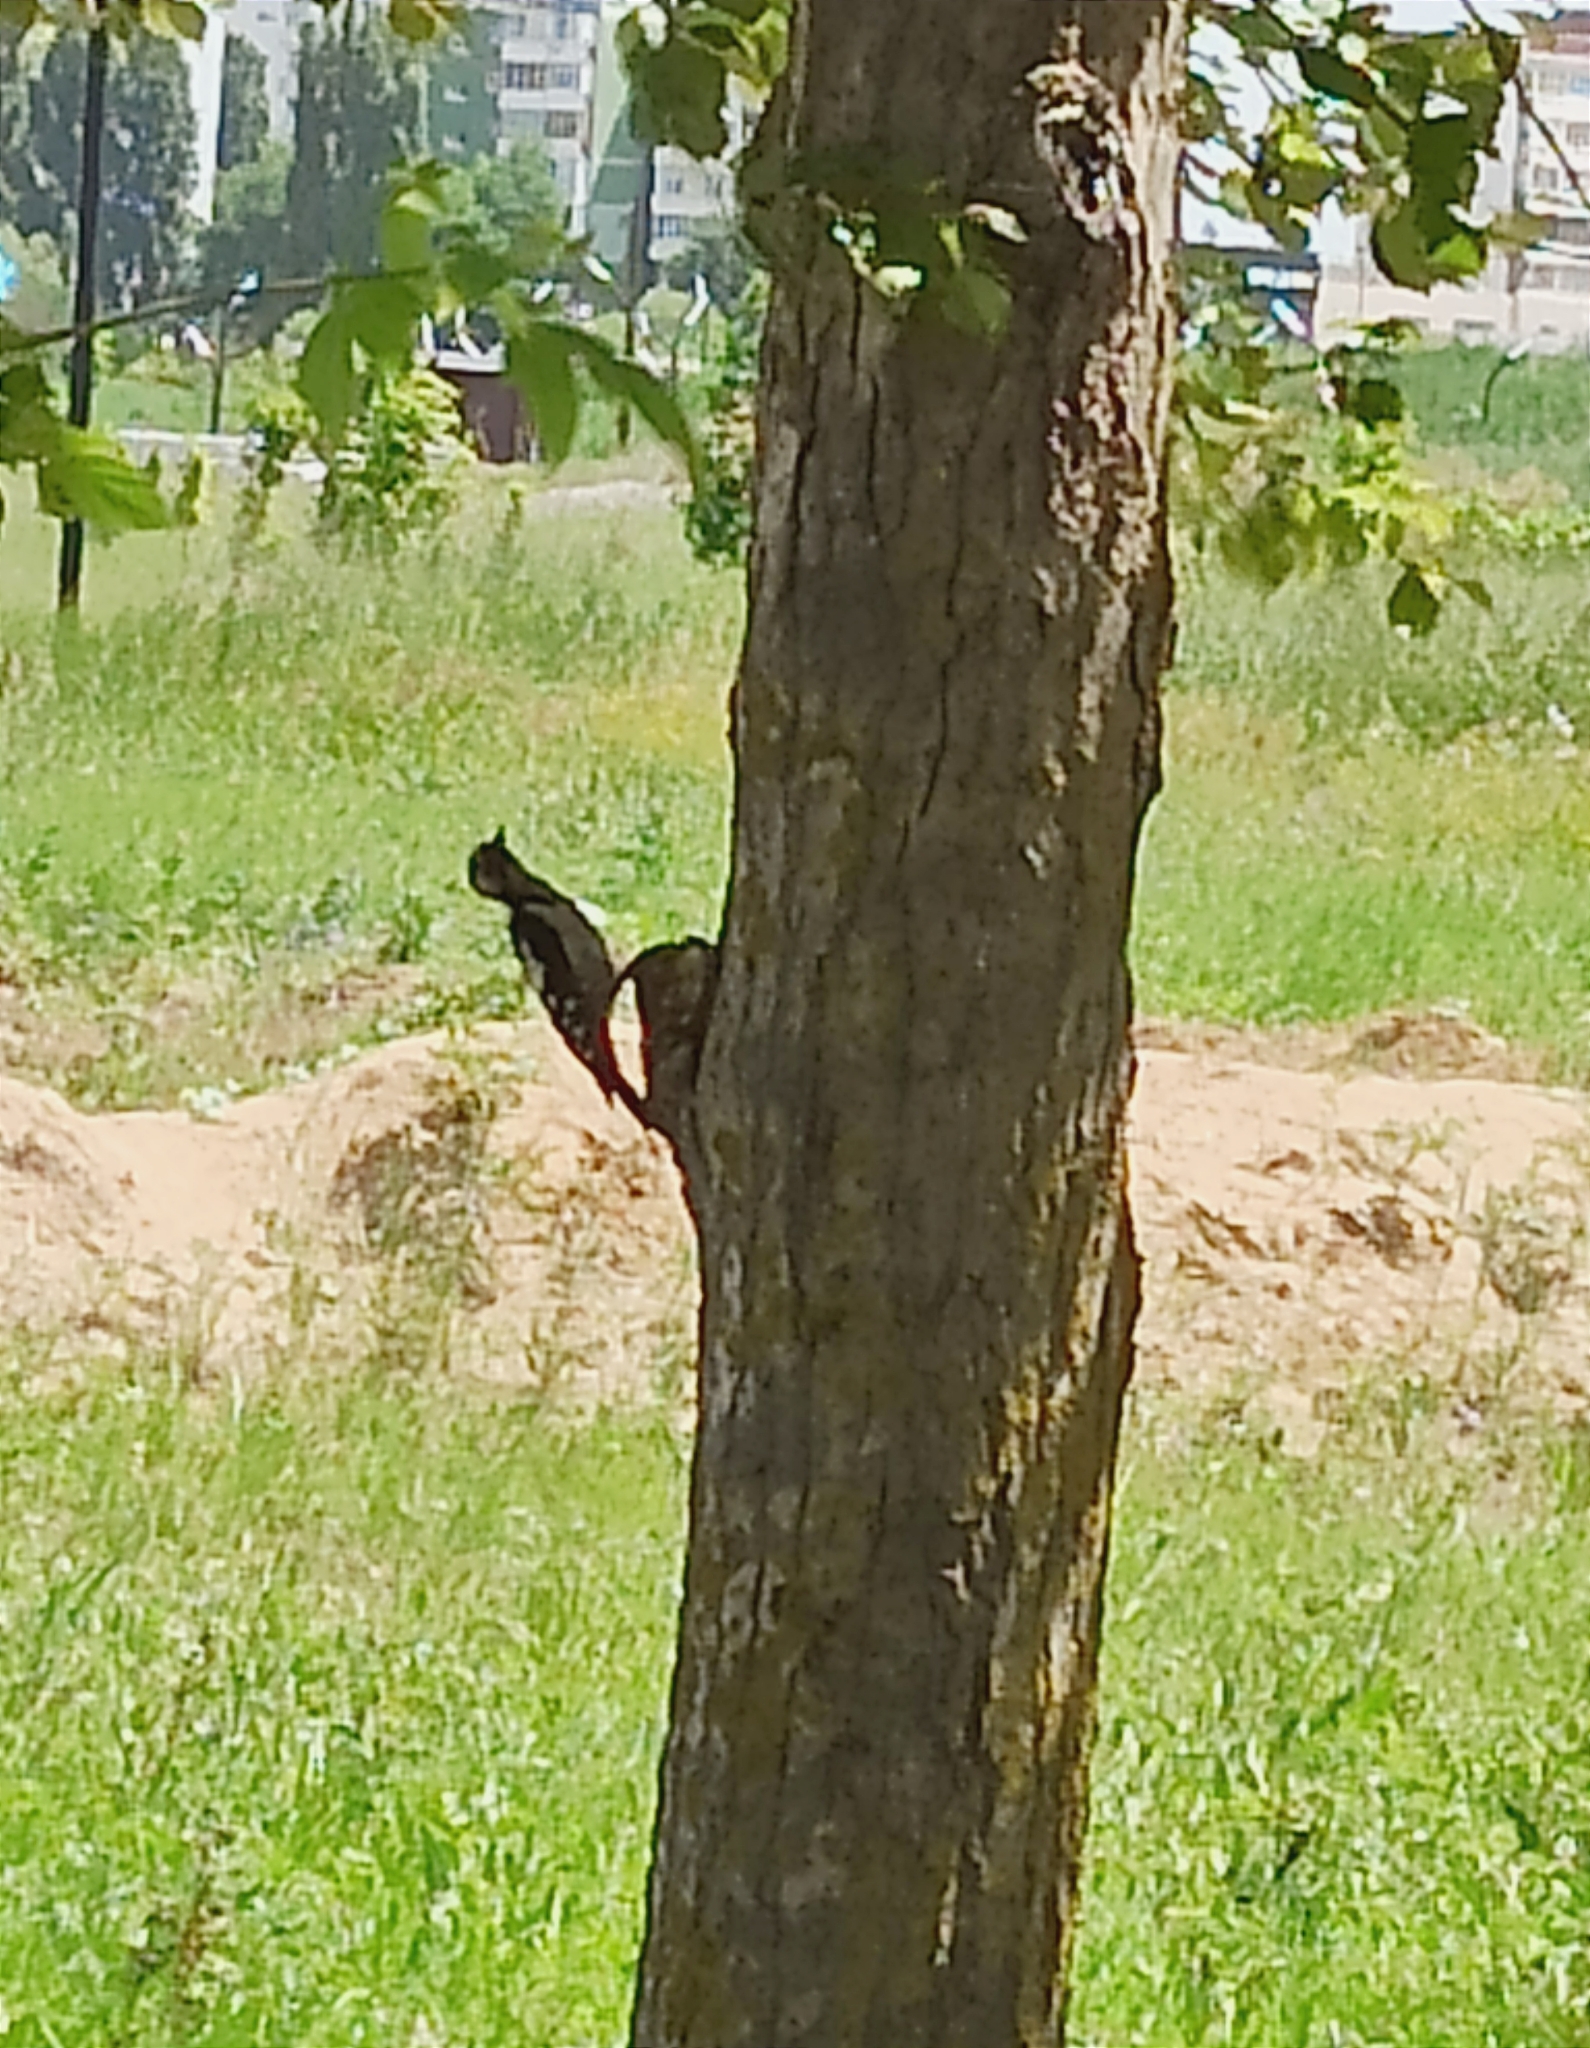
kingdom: Animalia
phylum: Chordata
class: Aves
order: Piciformes
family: Picidae
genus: Dendrocopos
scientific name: Dendrocopos syriacus
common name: Syrian woodpecker
